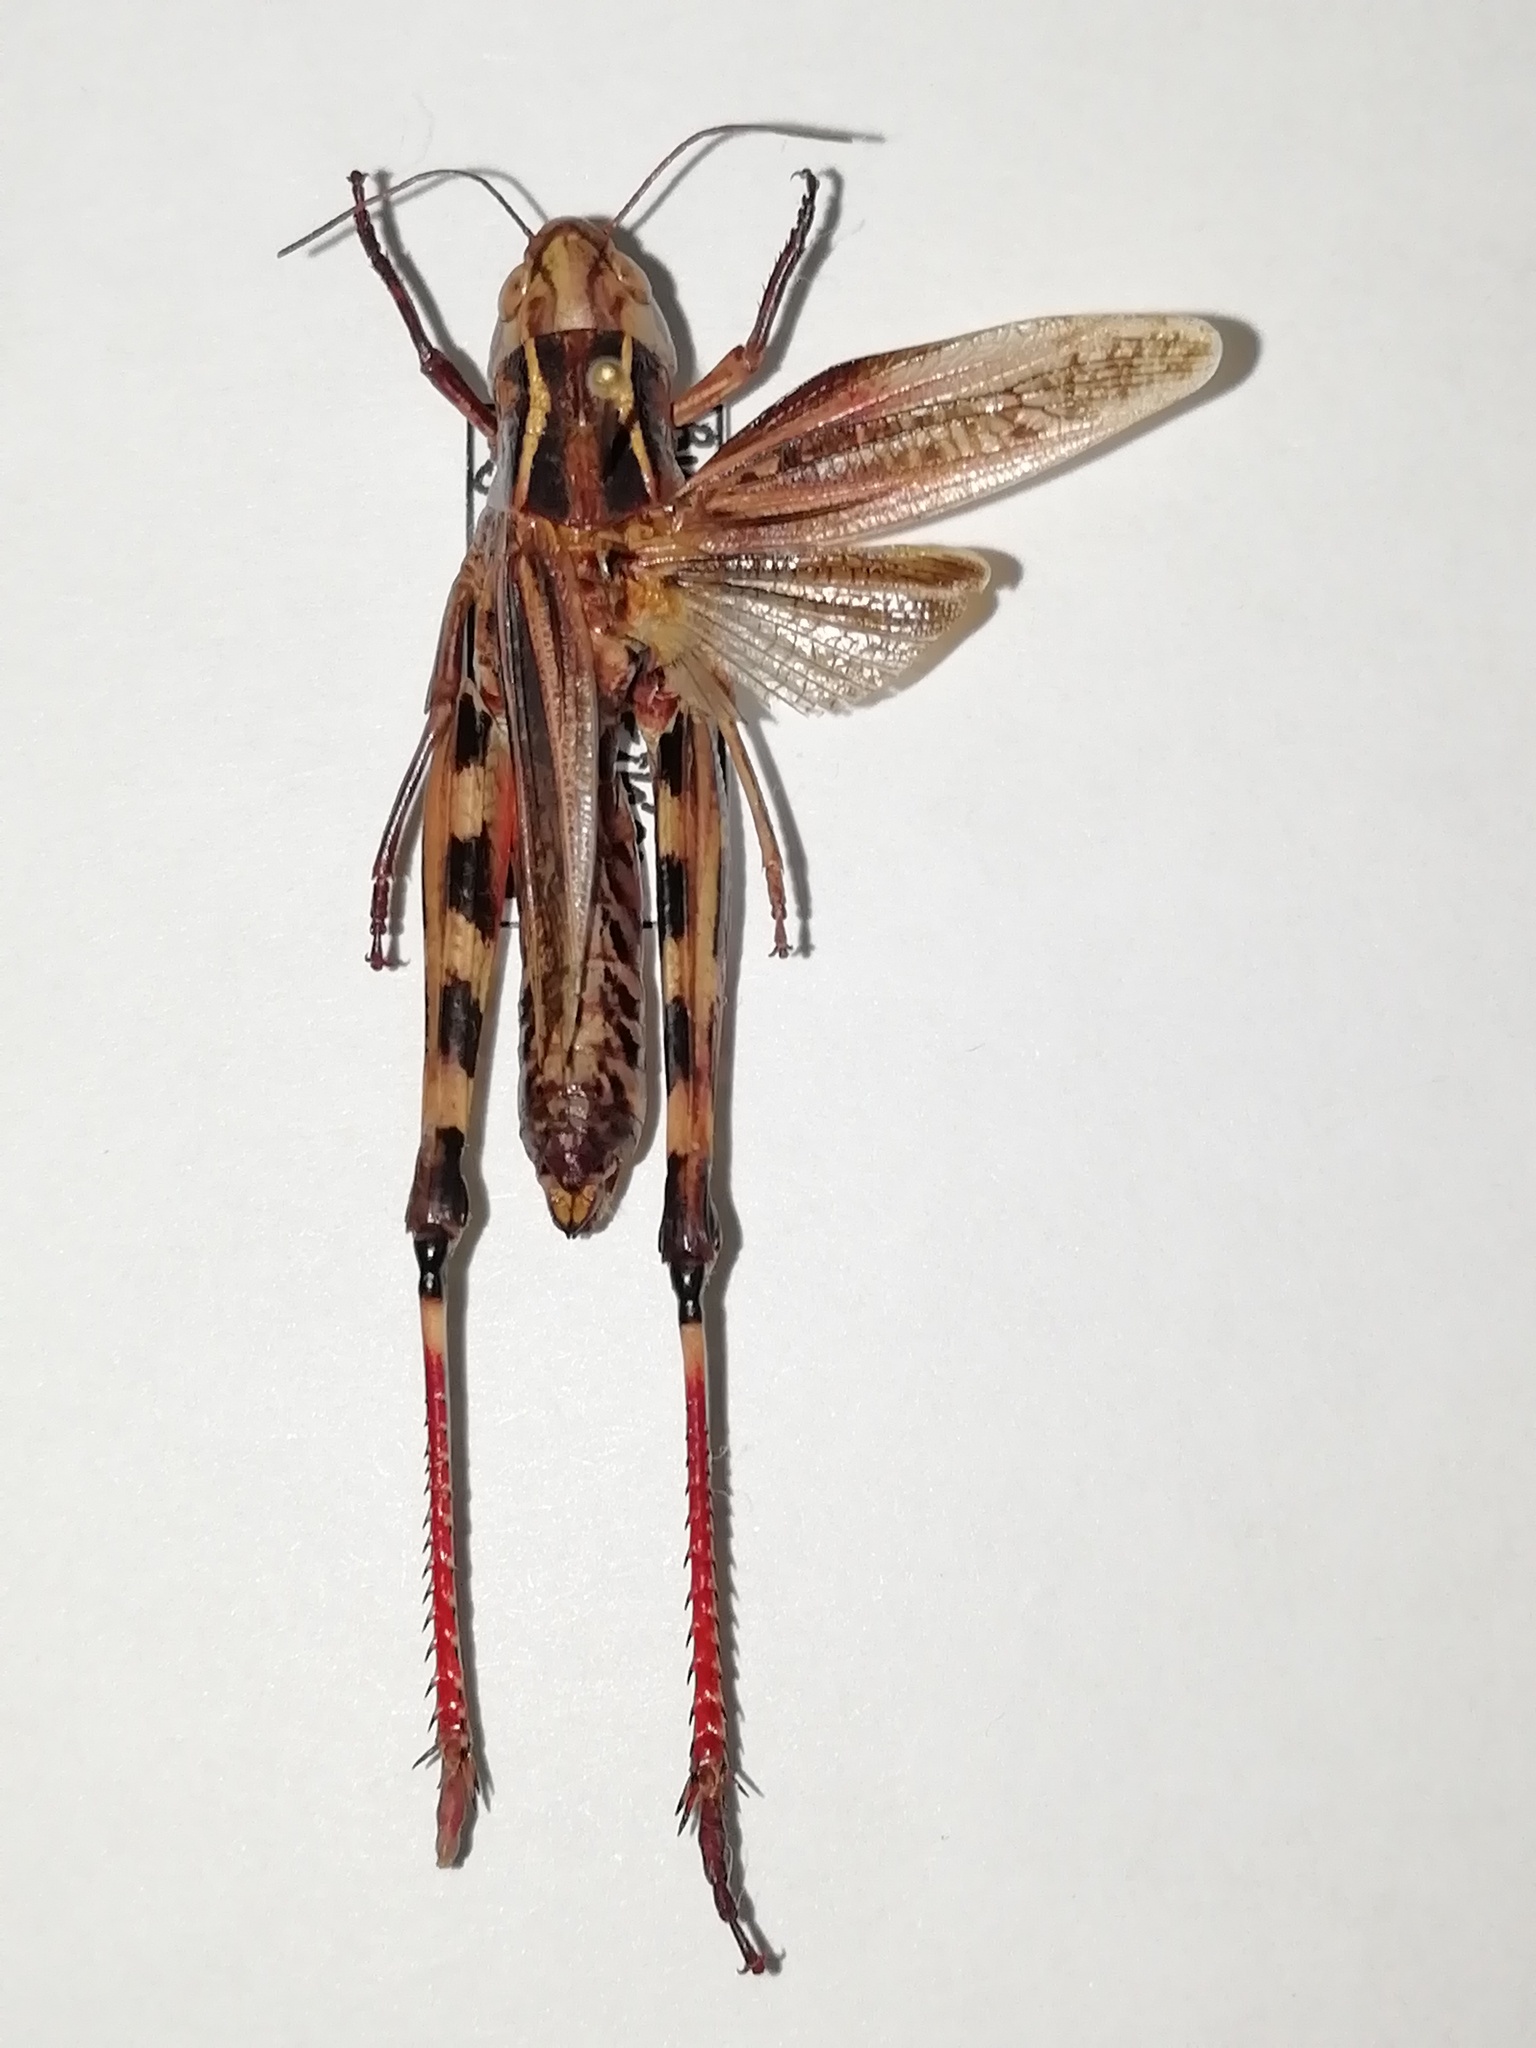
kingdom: Animalia
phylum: Arthropoda
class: Insecta
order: Orthoptera
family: Acrididae
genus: Arcyptera
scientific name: Arcyptera fusca
